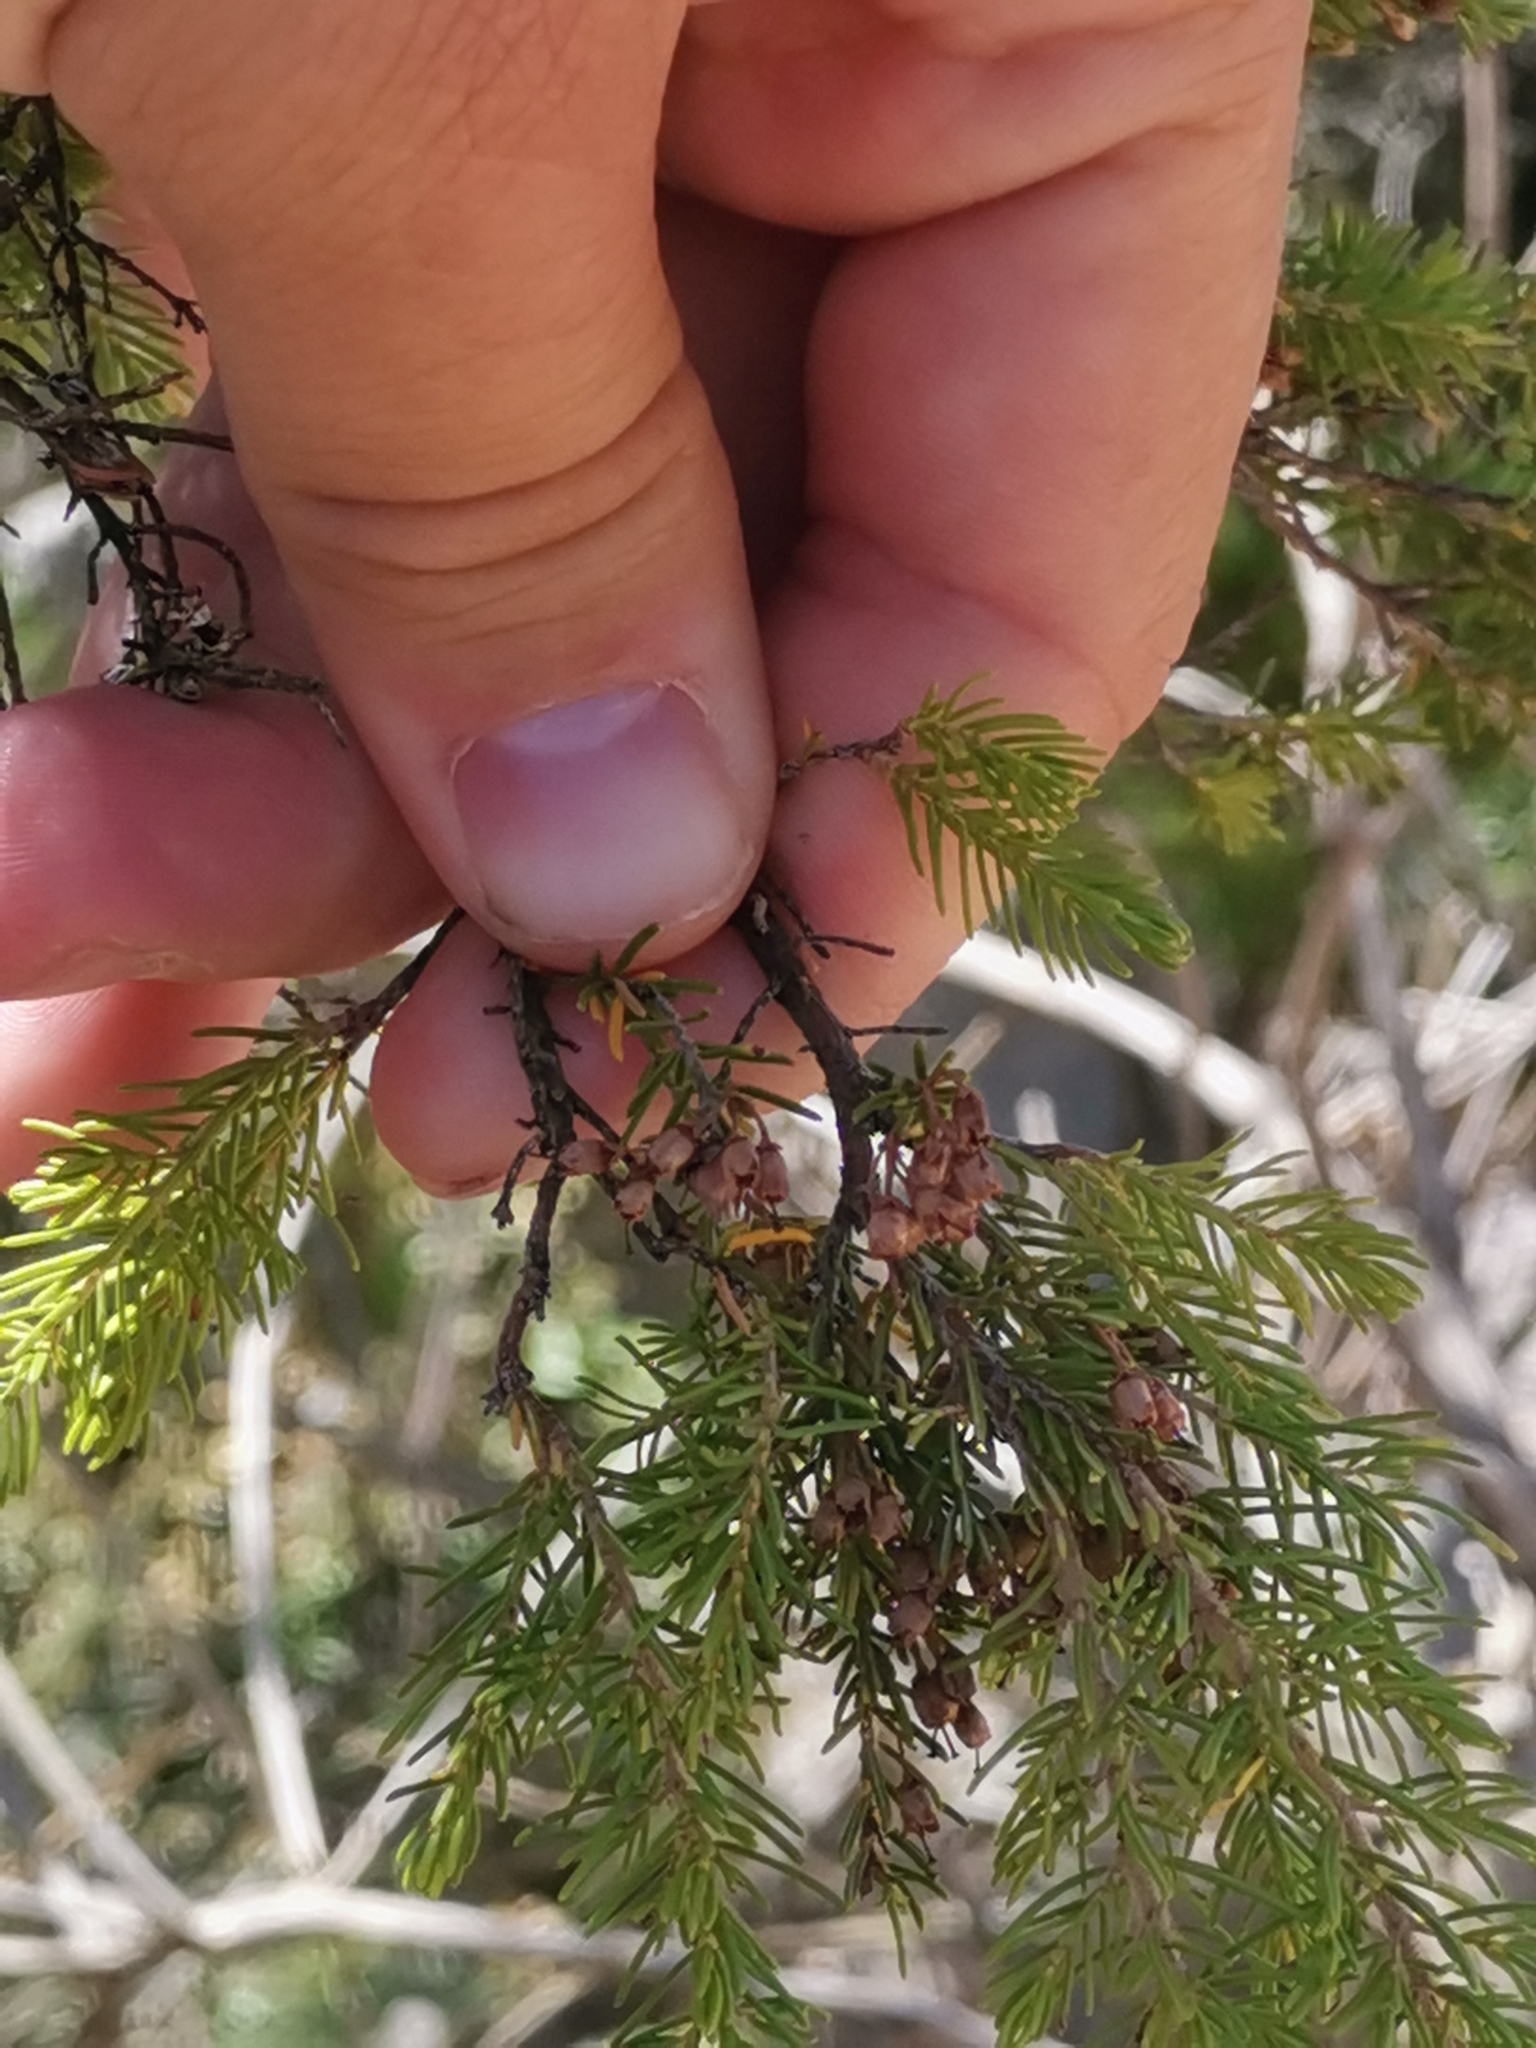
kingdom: Plantae
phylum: Tracheophyta
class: Magnoliopsida
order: Ericales
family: Ericaceae
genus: Erica
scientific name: Erica arborea
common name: Tree heath
